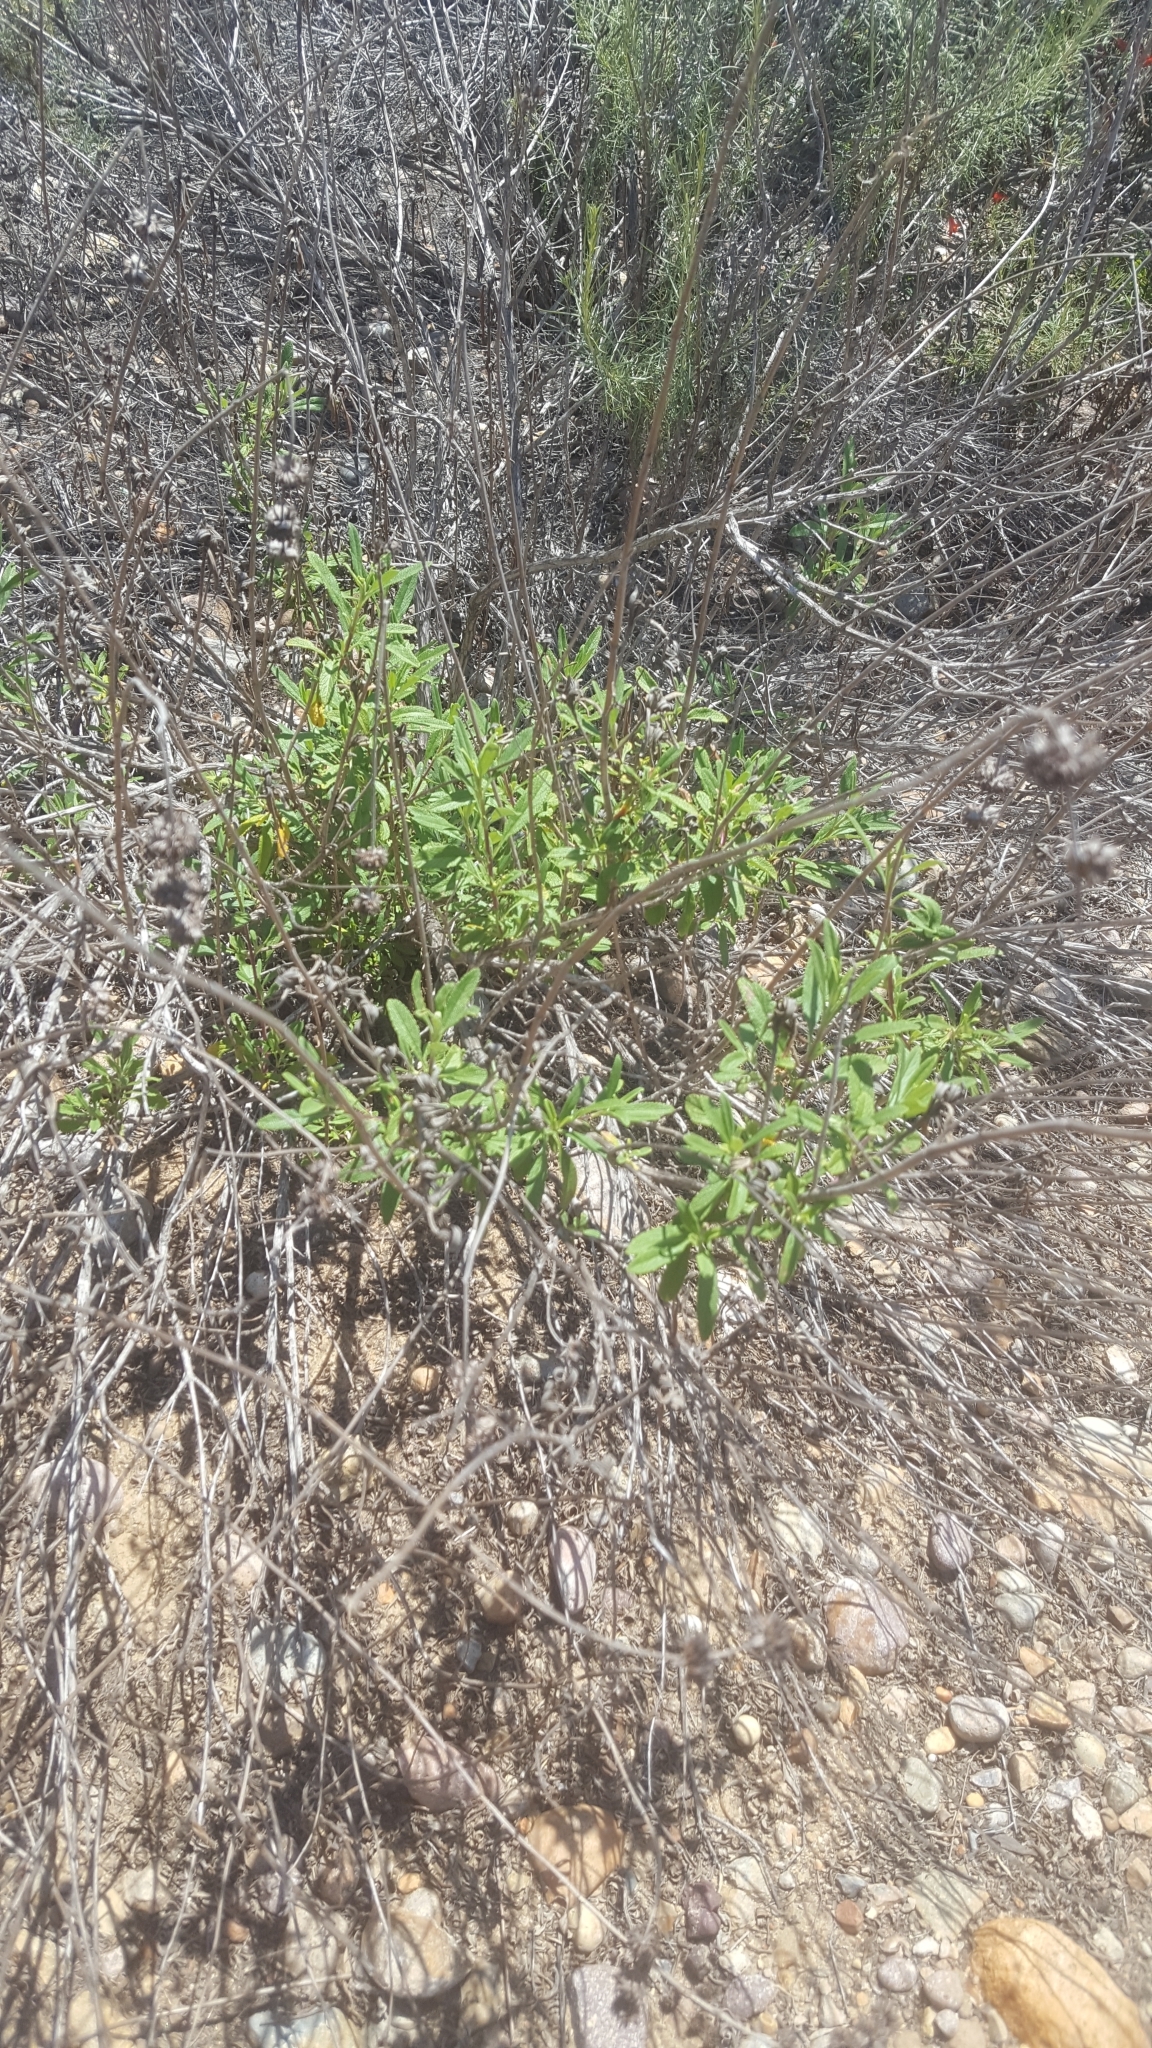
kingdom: Plantae
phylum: Tracheophyta
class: Magnoliopsida
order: Lamiales
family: Lamiaceae
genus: Salvia
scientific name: Salvia mellifera
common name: Black sage
